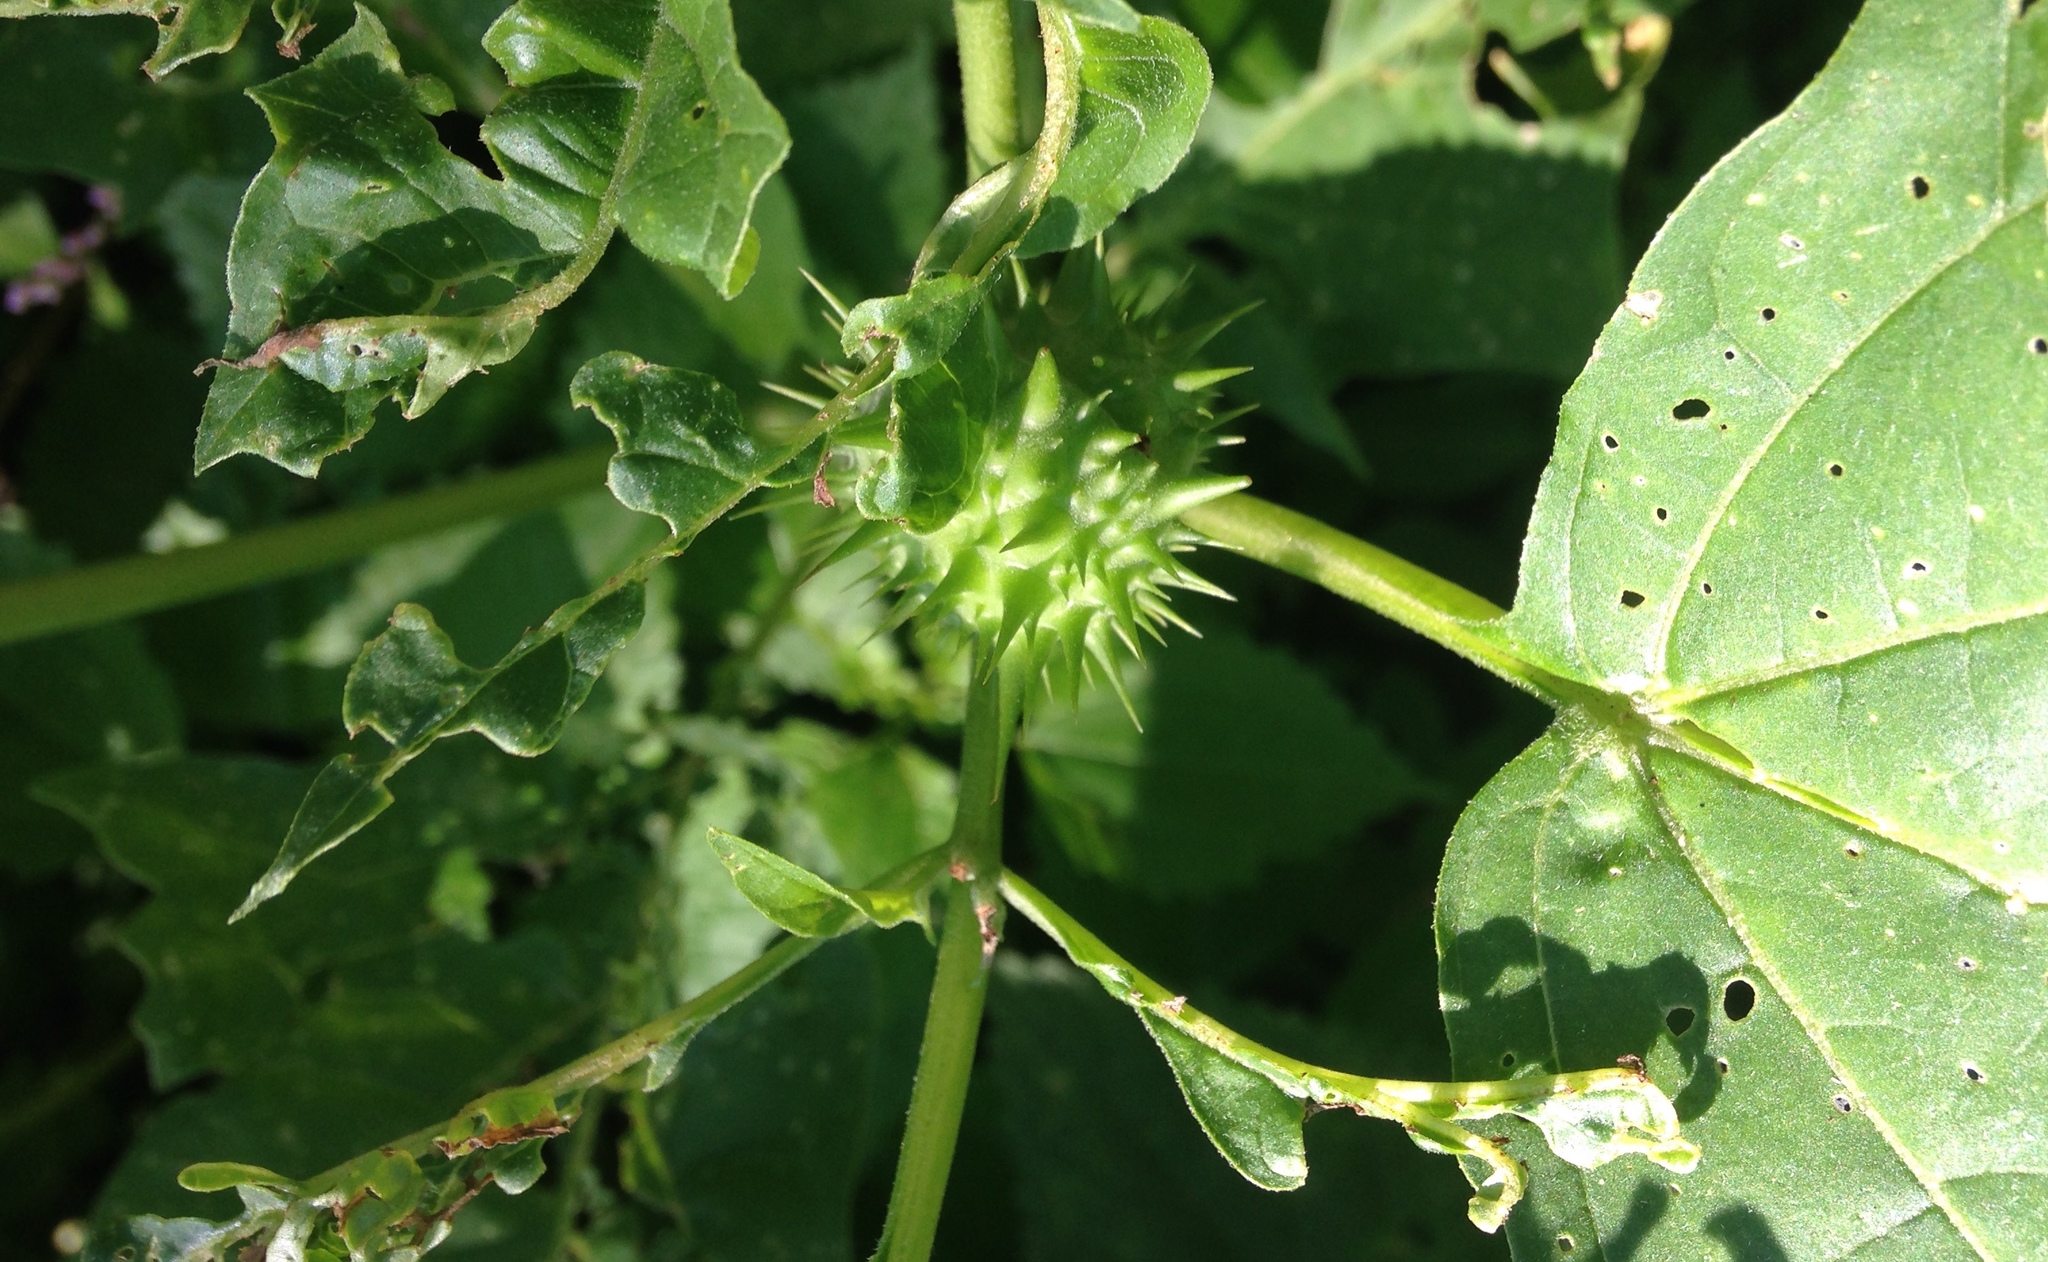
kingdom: Plantae
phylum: Tracheophyta
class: Magnoliopsida
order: Solanales
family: Solanaceae
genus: Datura
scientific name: Datura stramonium
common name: Thorn-apple
